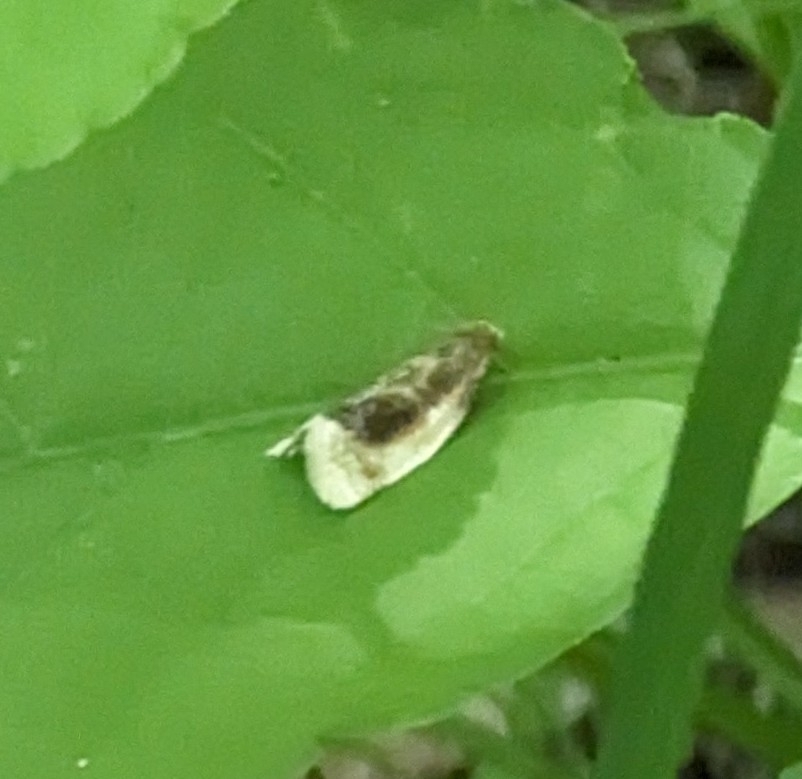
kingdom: Animalia
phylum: Arthropoda
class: Insecta
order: Lepidoptera
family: Tortricidae
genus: Clepsis
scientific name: Clepsis melaleucanus
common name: American apple tortrix
